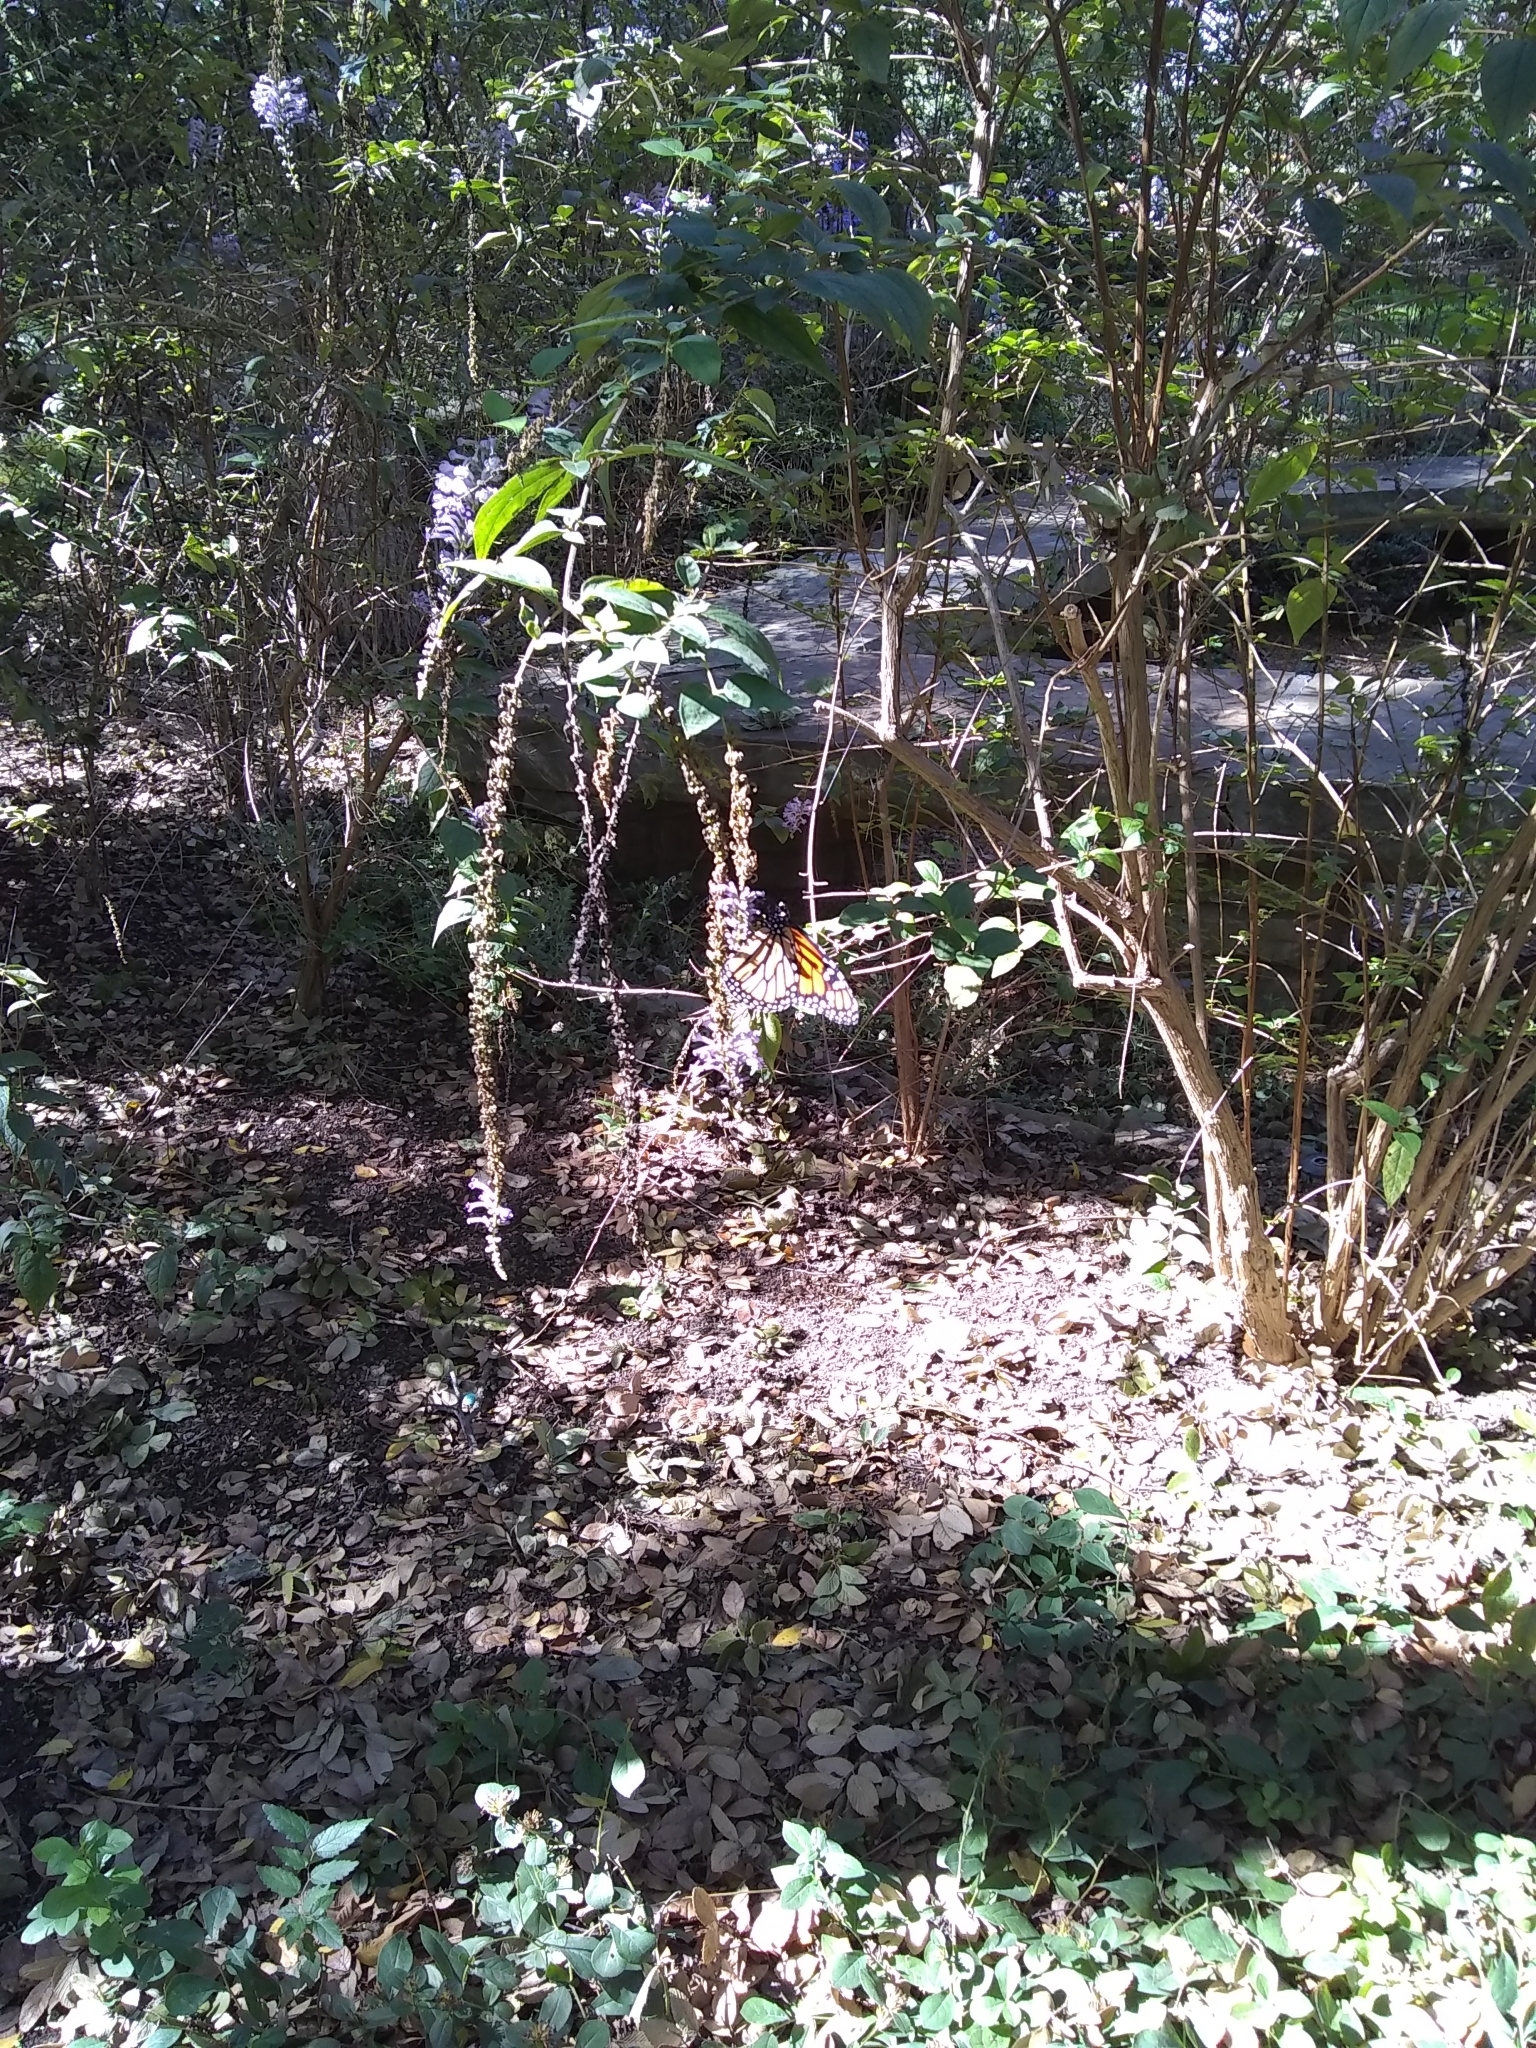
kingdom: Animalia
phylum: Arthropoda
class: Insecta
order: Lepidoptera
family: Nymphalidae
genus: Danaus
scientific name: Danaus plexippus
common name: Monarch
